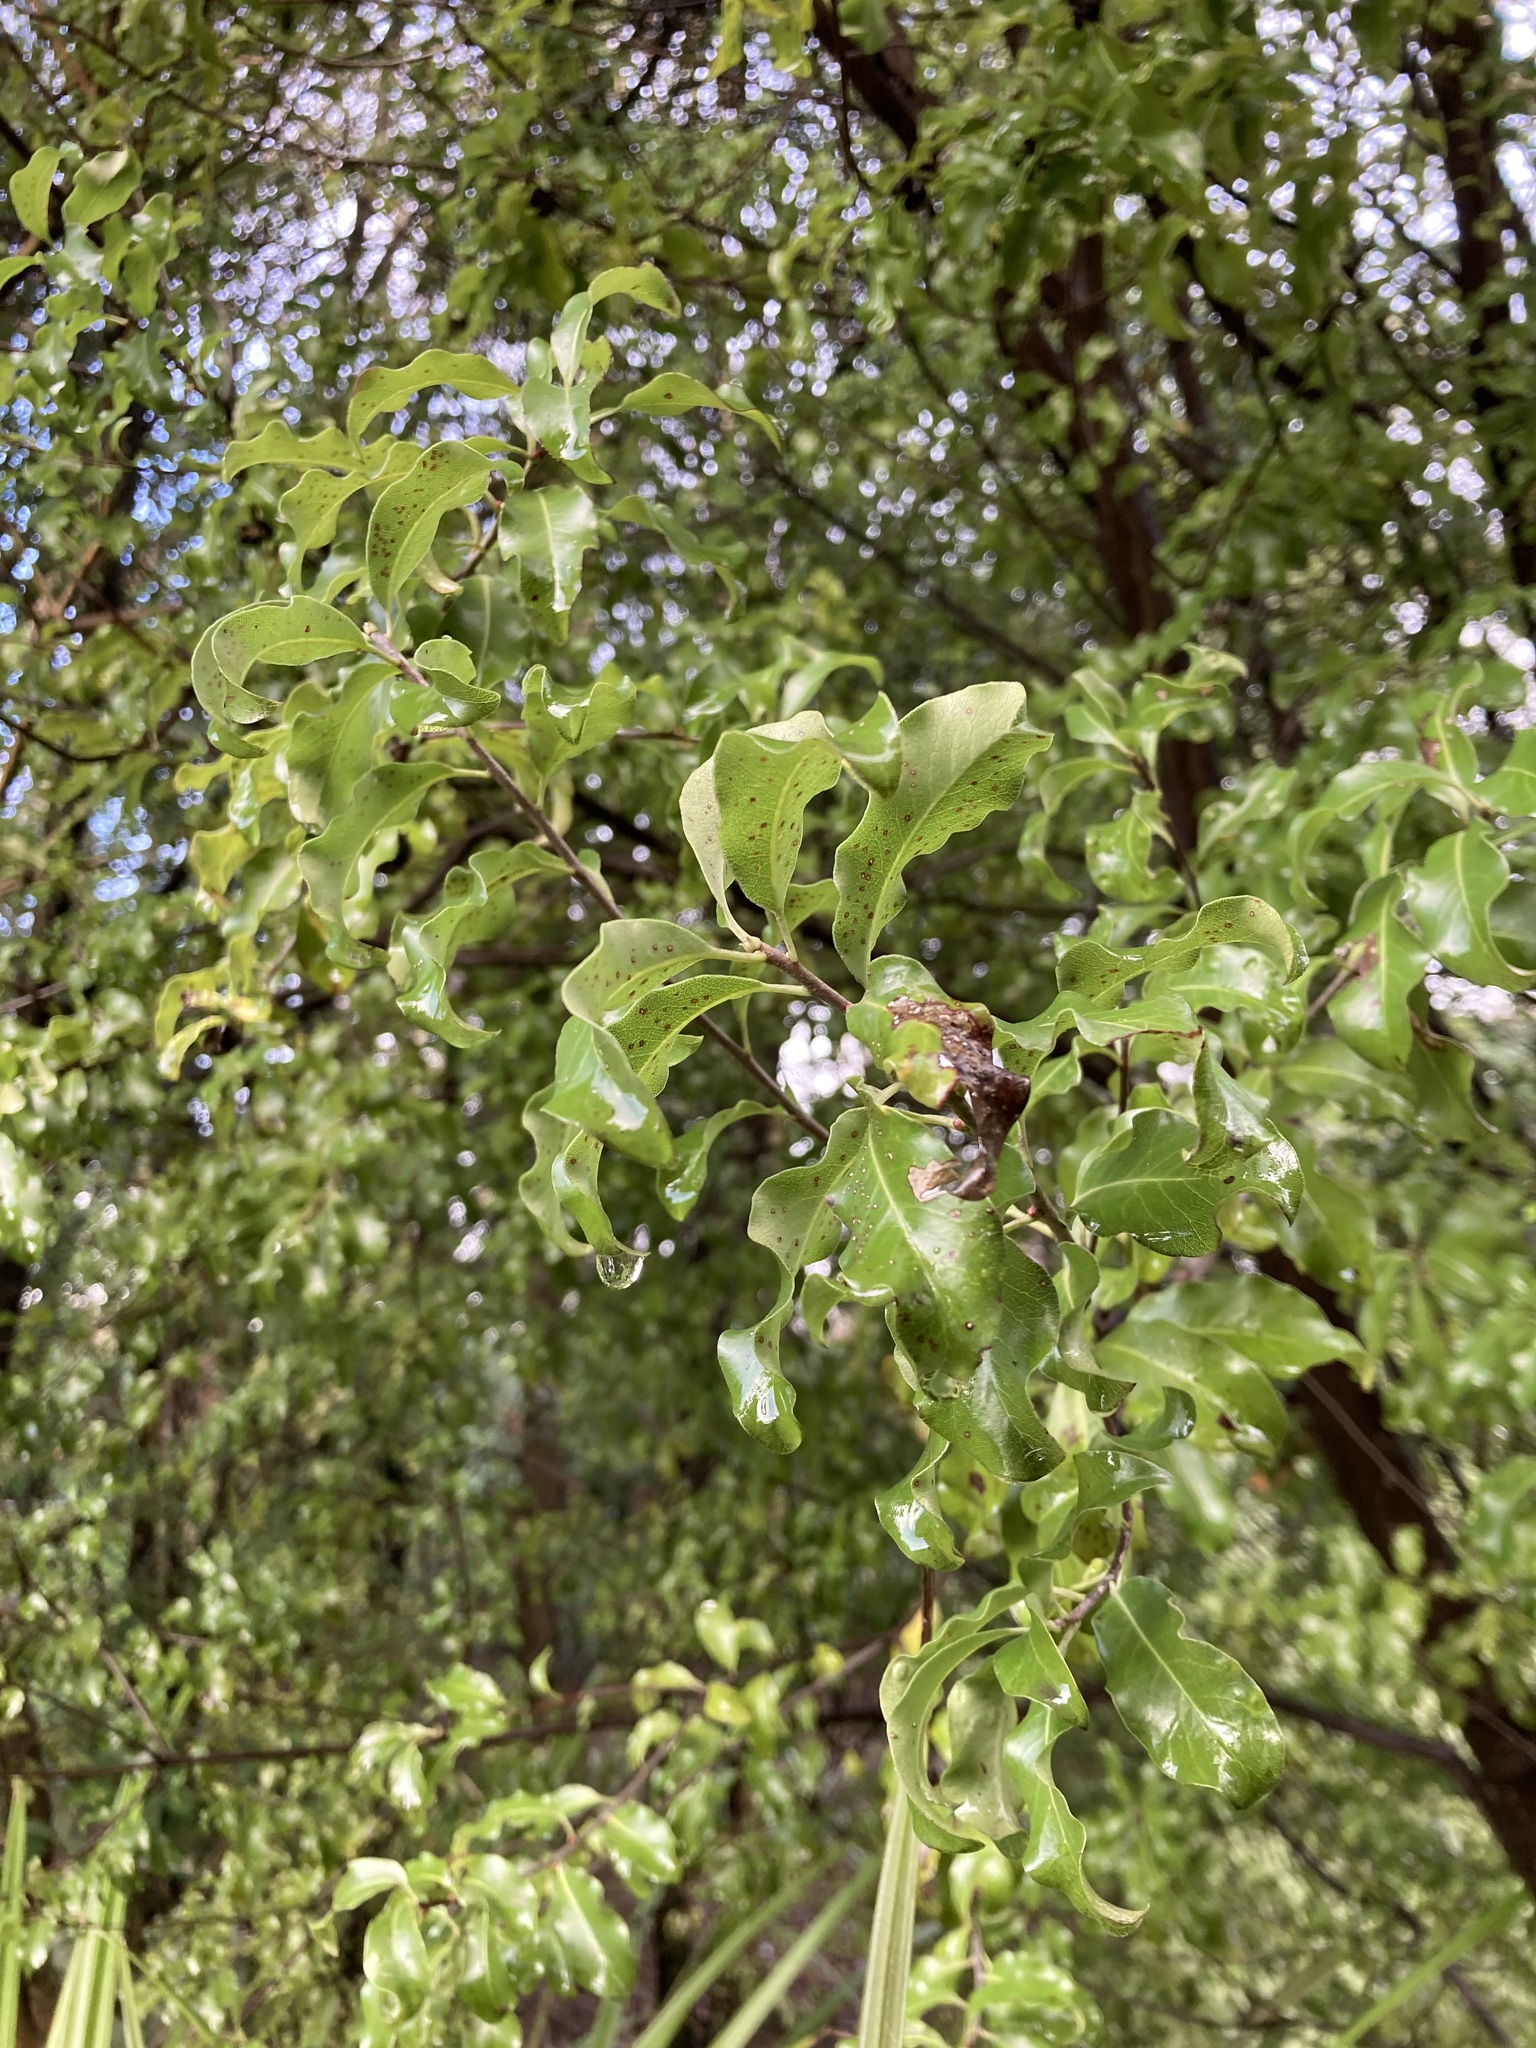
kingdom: Plantae
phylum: Tracheophyta
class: Magnoliopsida
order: Apiales
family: Pittosporaceae
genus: Pittosporum
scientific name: Pittosporum tenuifolium
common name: Kohuhu
